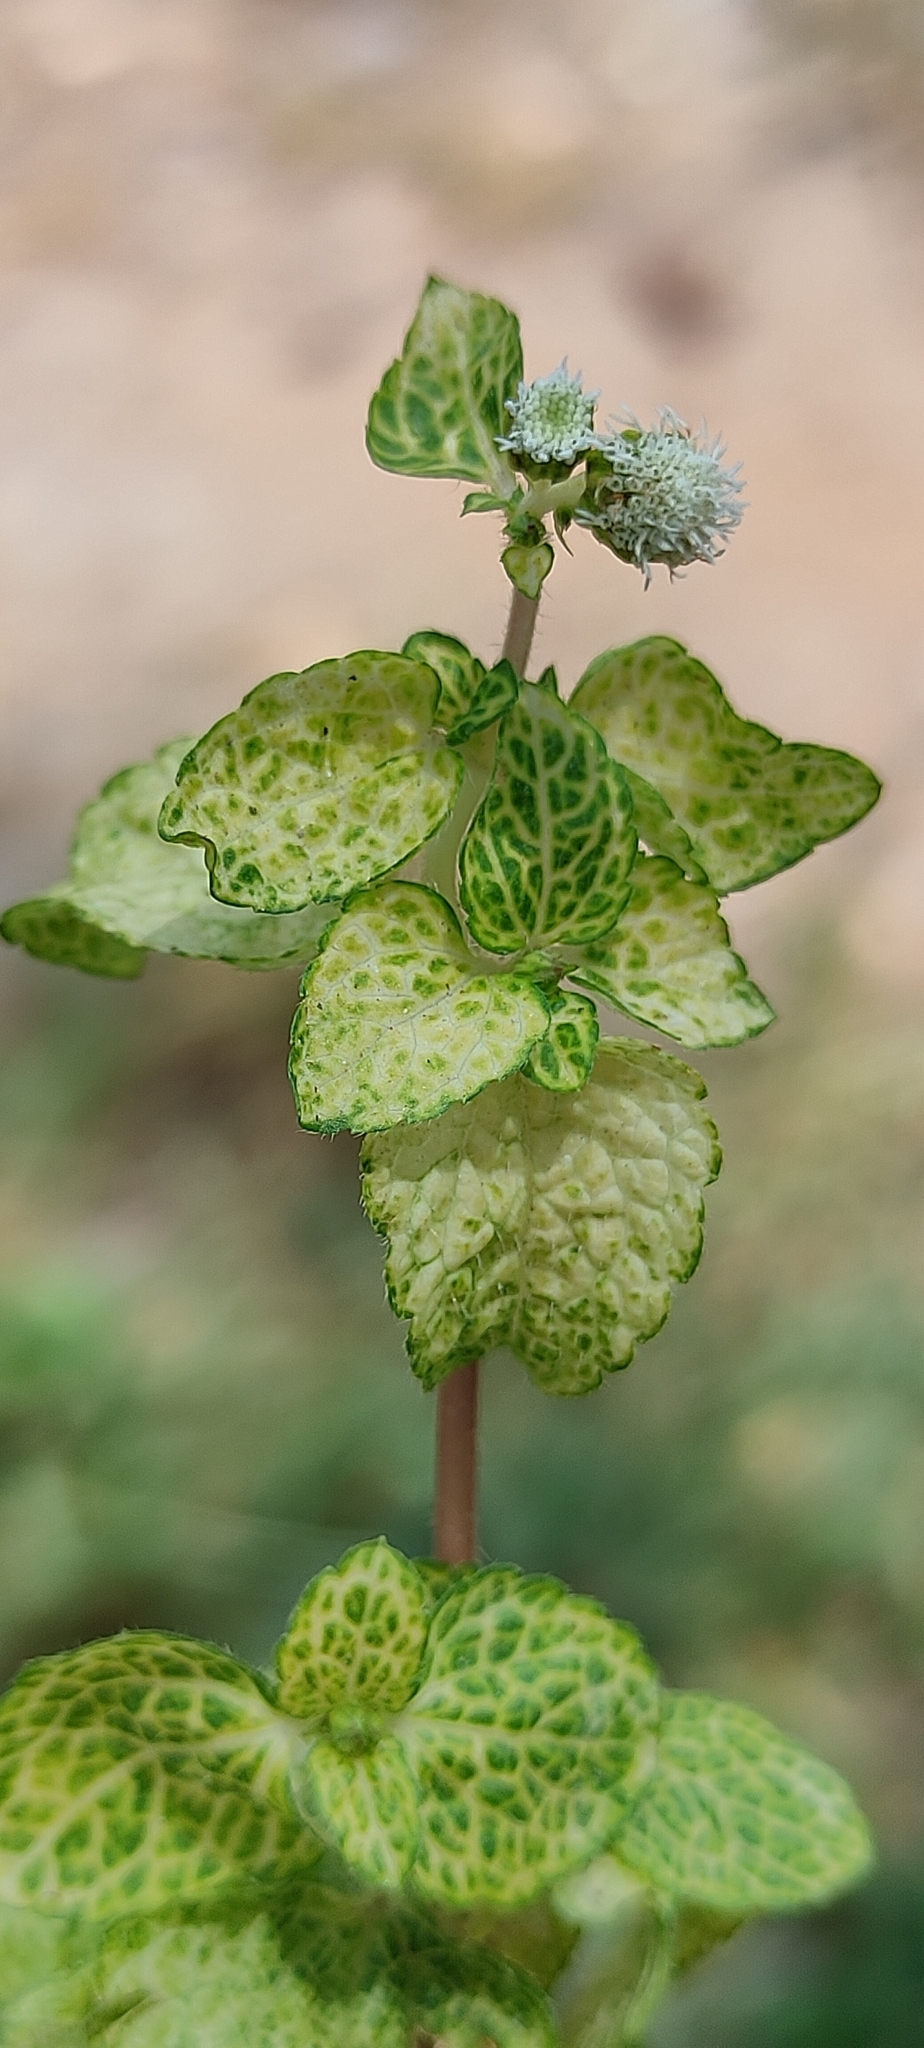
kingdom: Plantae
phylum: Tracheophyta
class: Magnoliopsida
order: Asterales
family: Asteraceae
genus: Ageratum
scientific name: Ageratum conyzoides
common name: Tropical whiteweed
